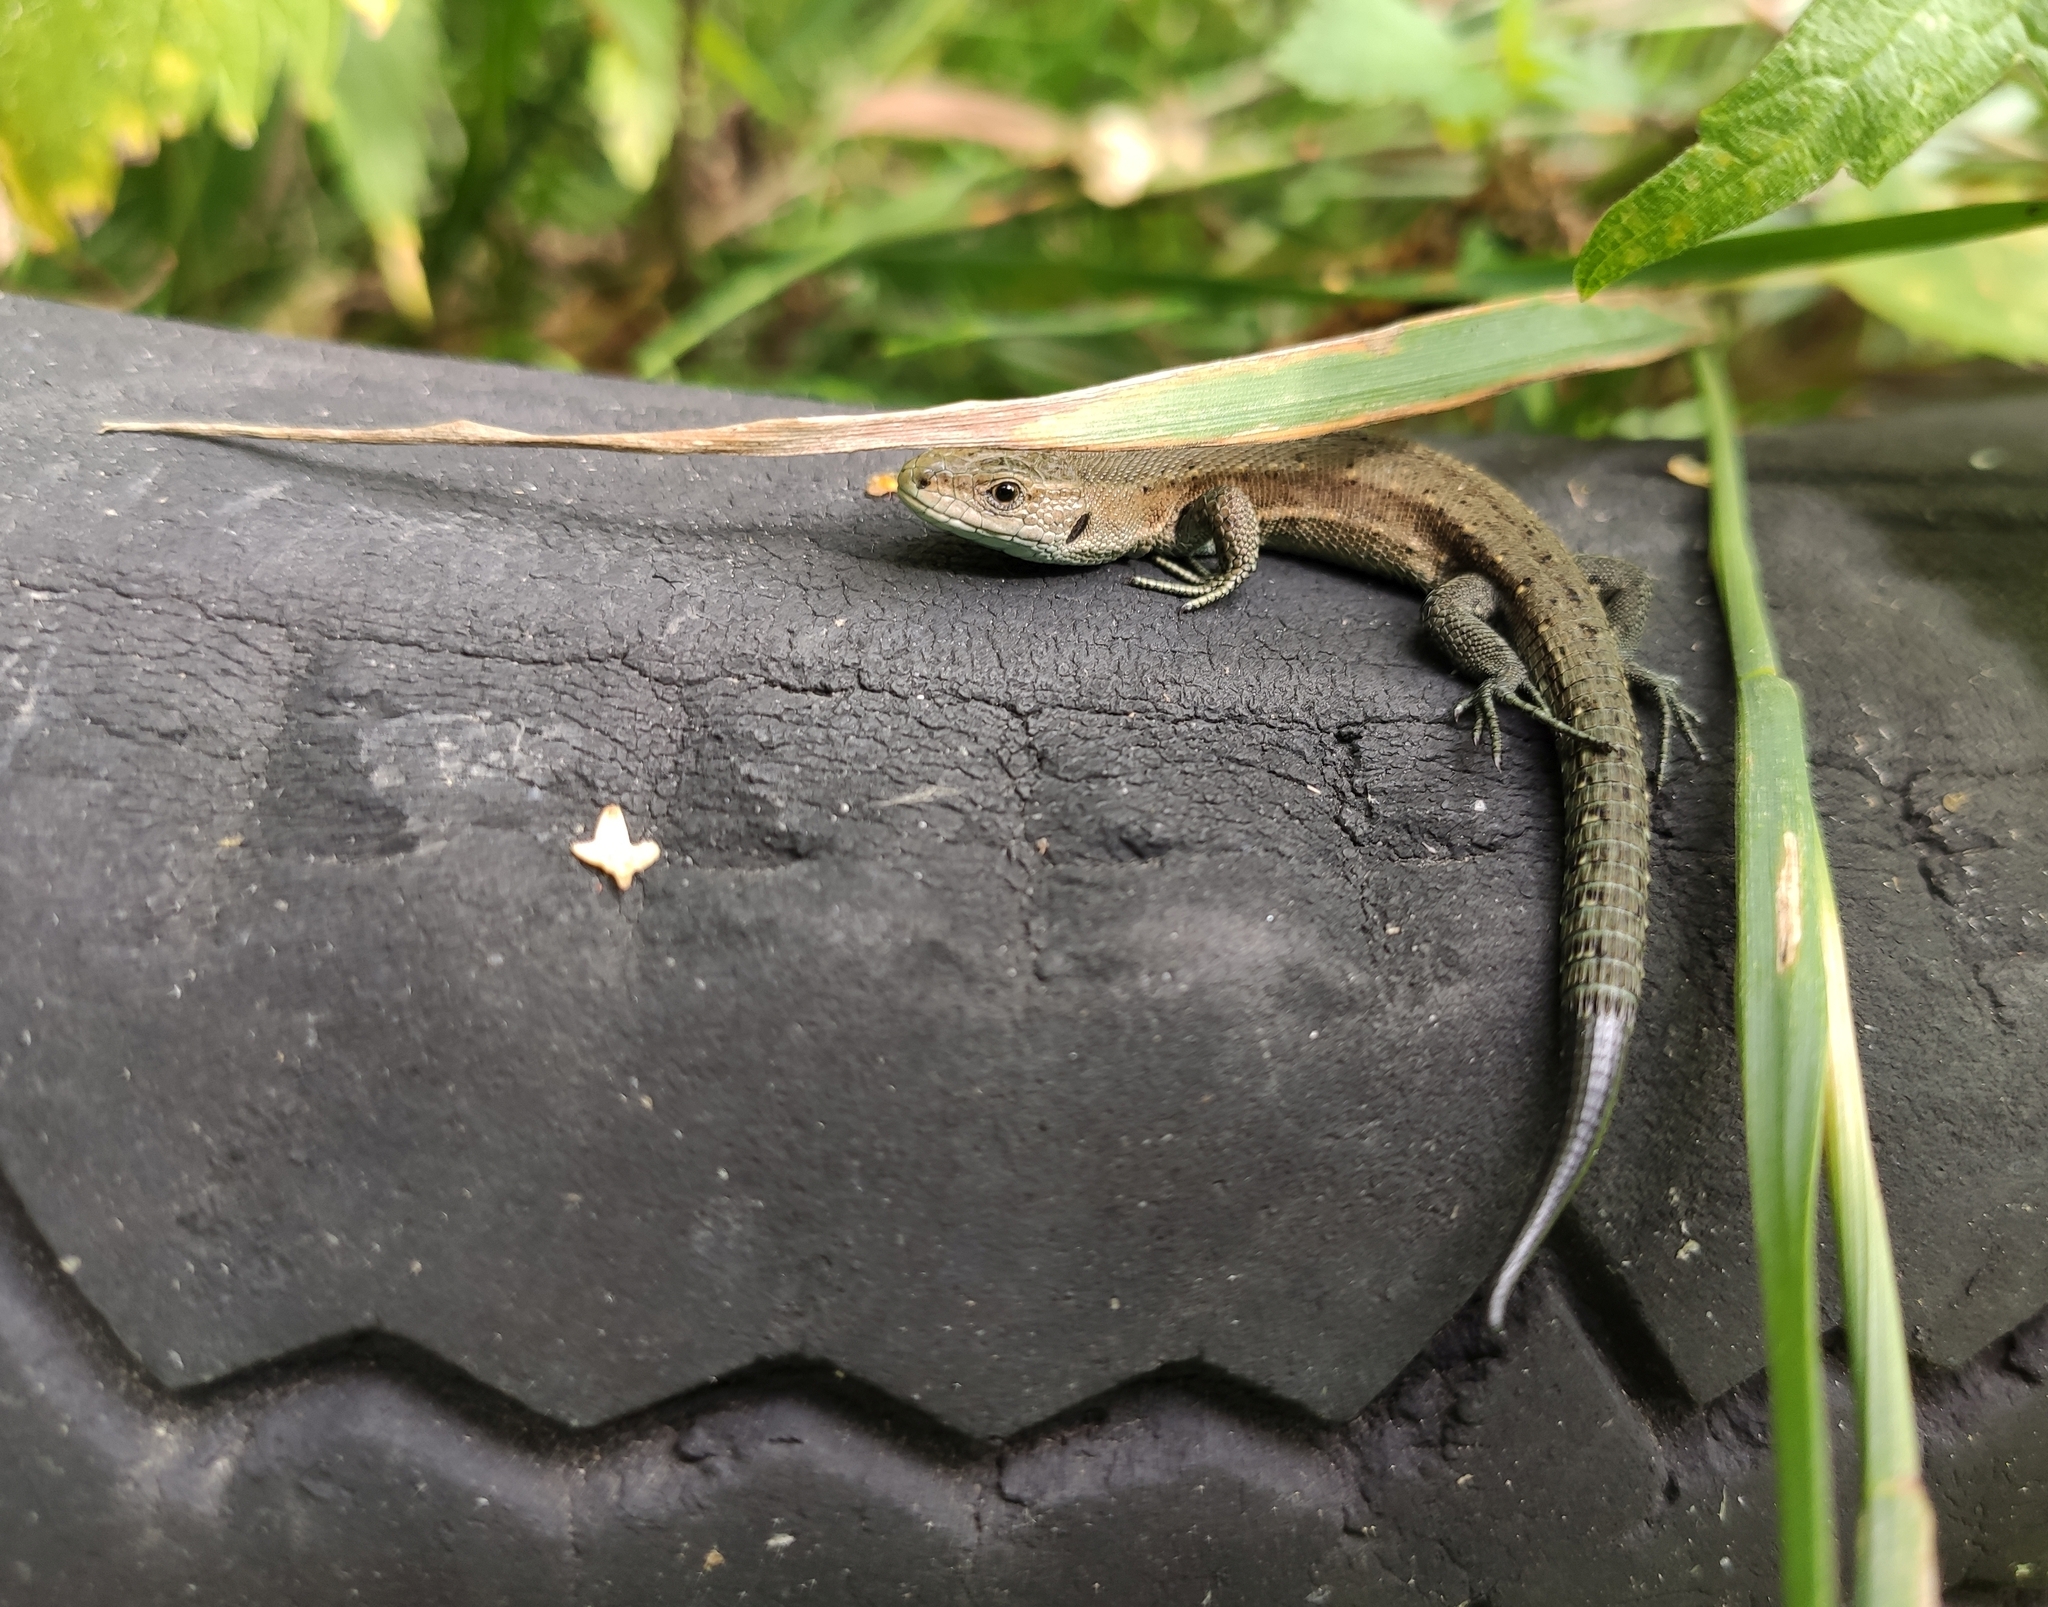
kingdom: Animalia
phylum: Chordata
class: Squamata
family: Lacertidae
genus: Zootoca
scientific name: Zootoca vivipara
